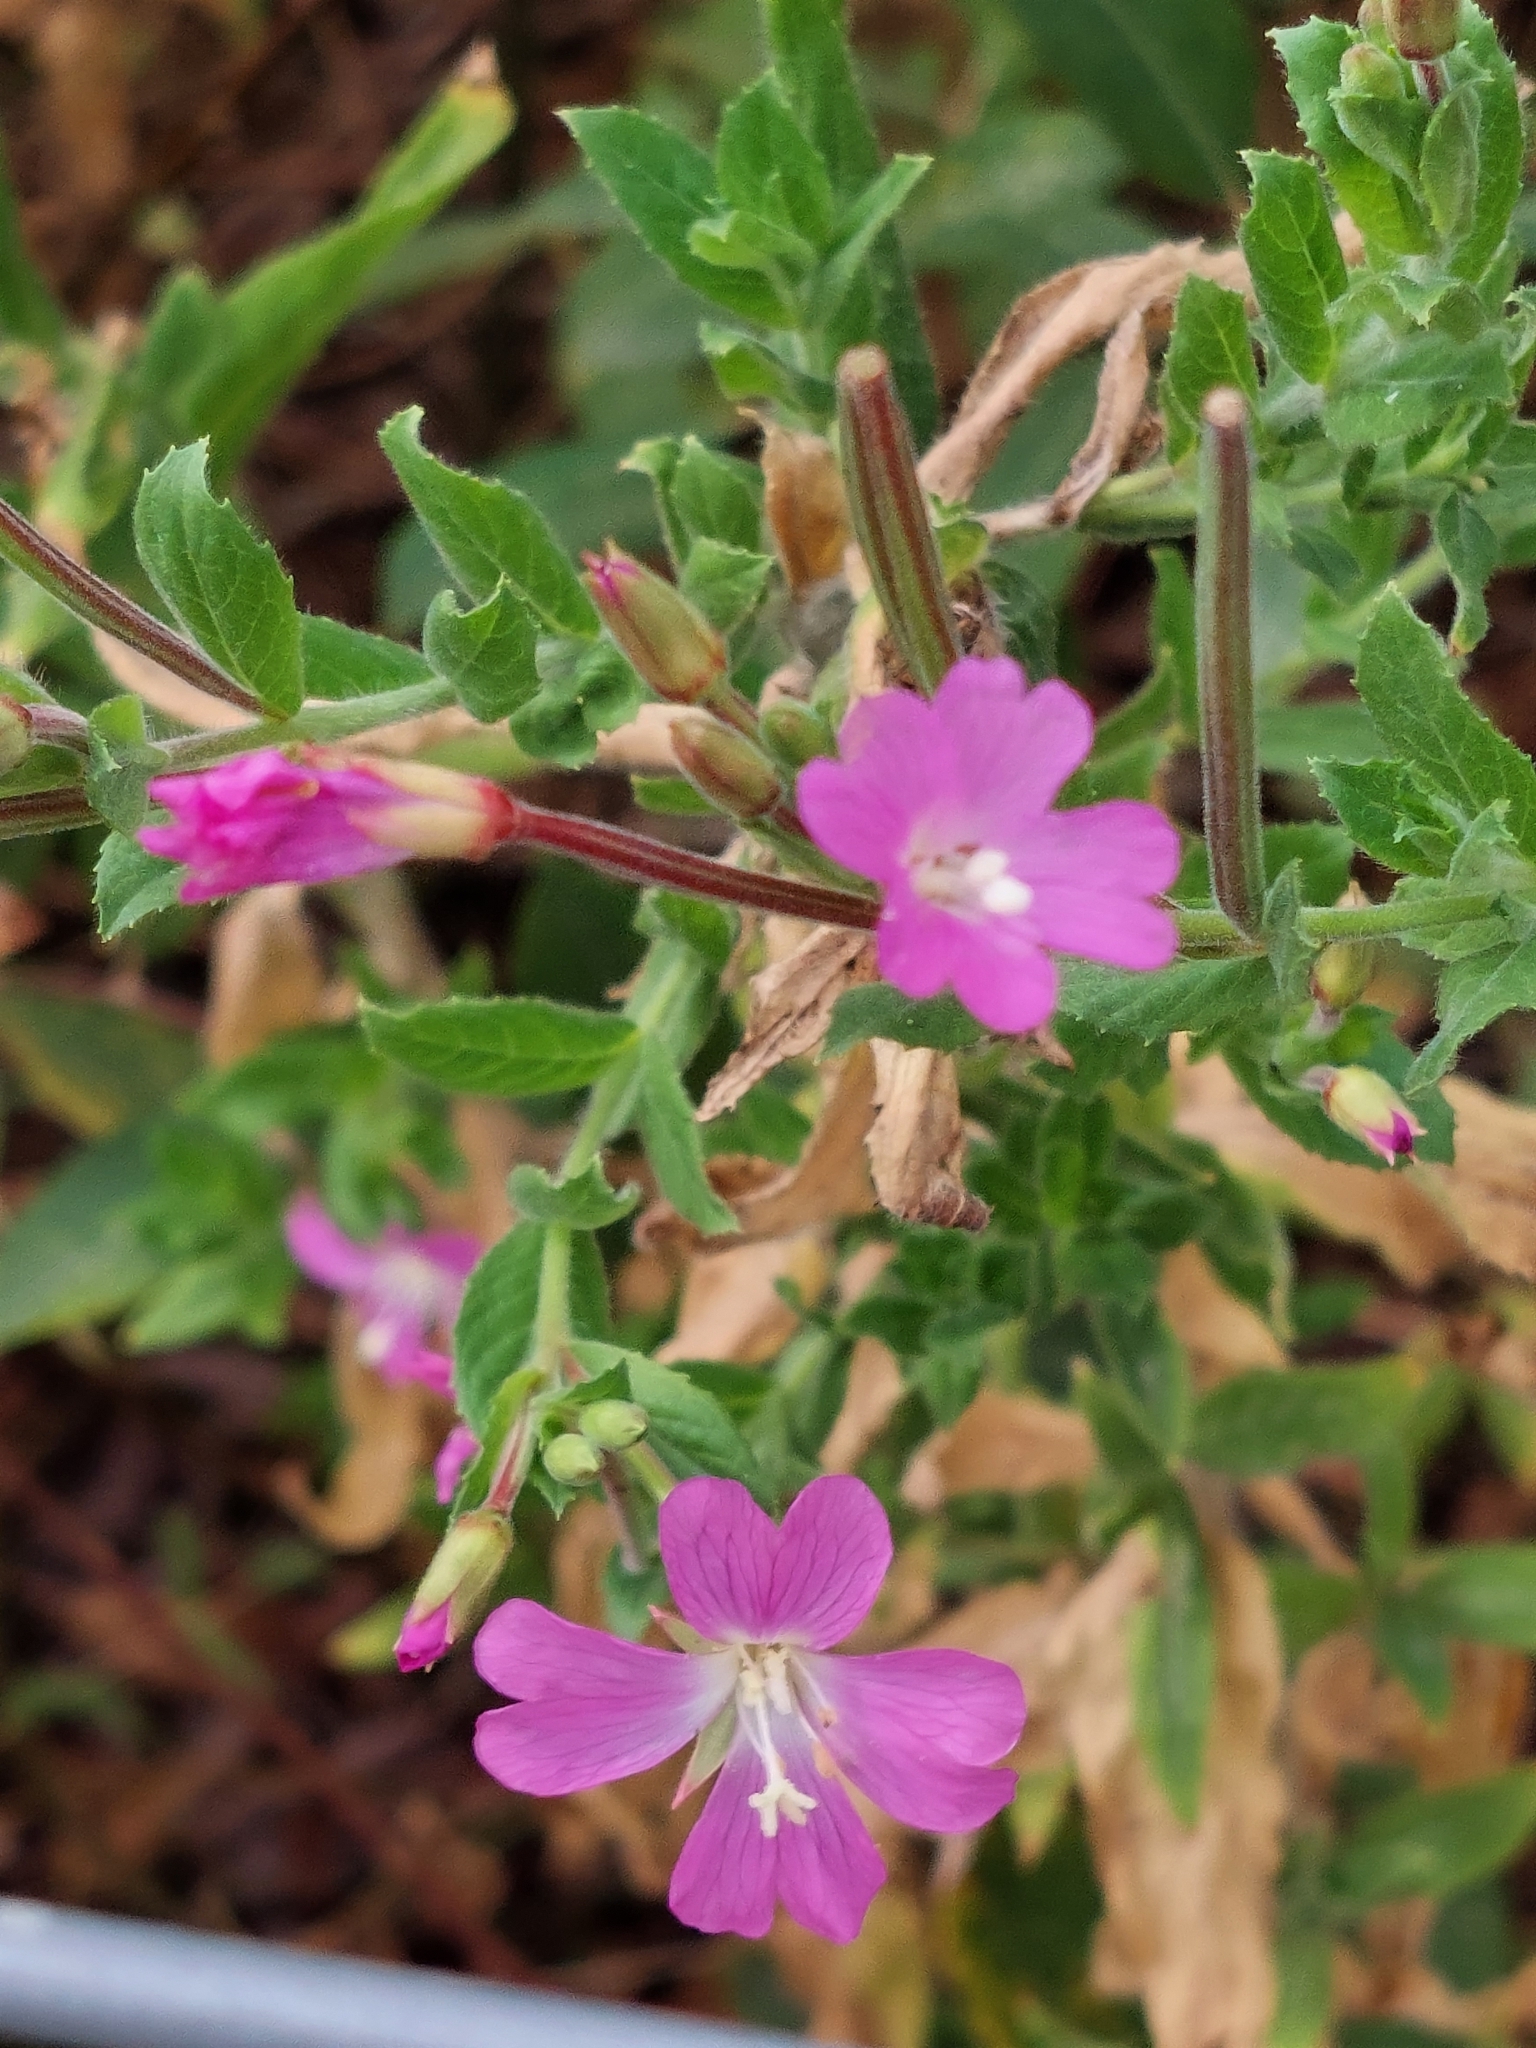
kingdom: Plantae
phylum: Tracheophyta
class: Magnoliopsida
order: Myrtales
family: Onagraceae
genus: Epilobium
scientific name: Epilobium hirsutum
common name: Great willowherb
